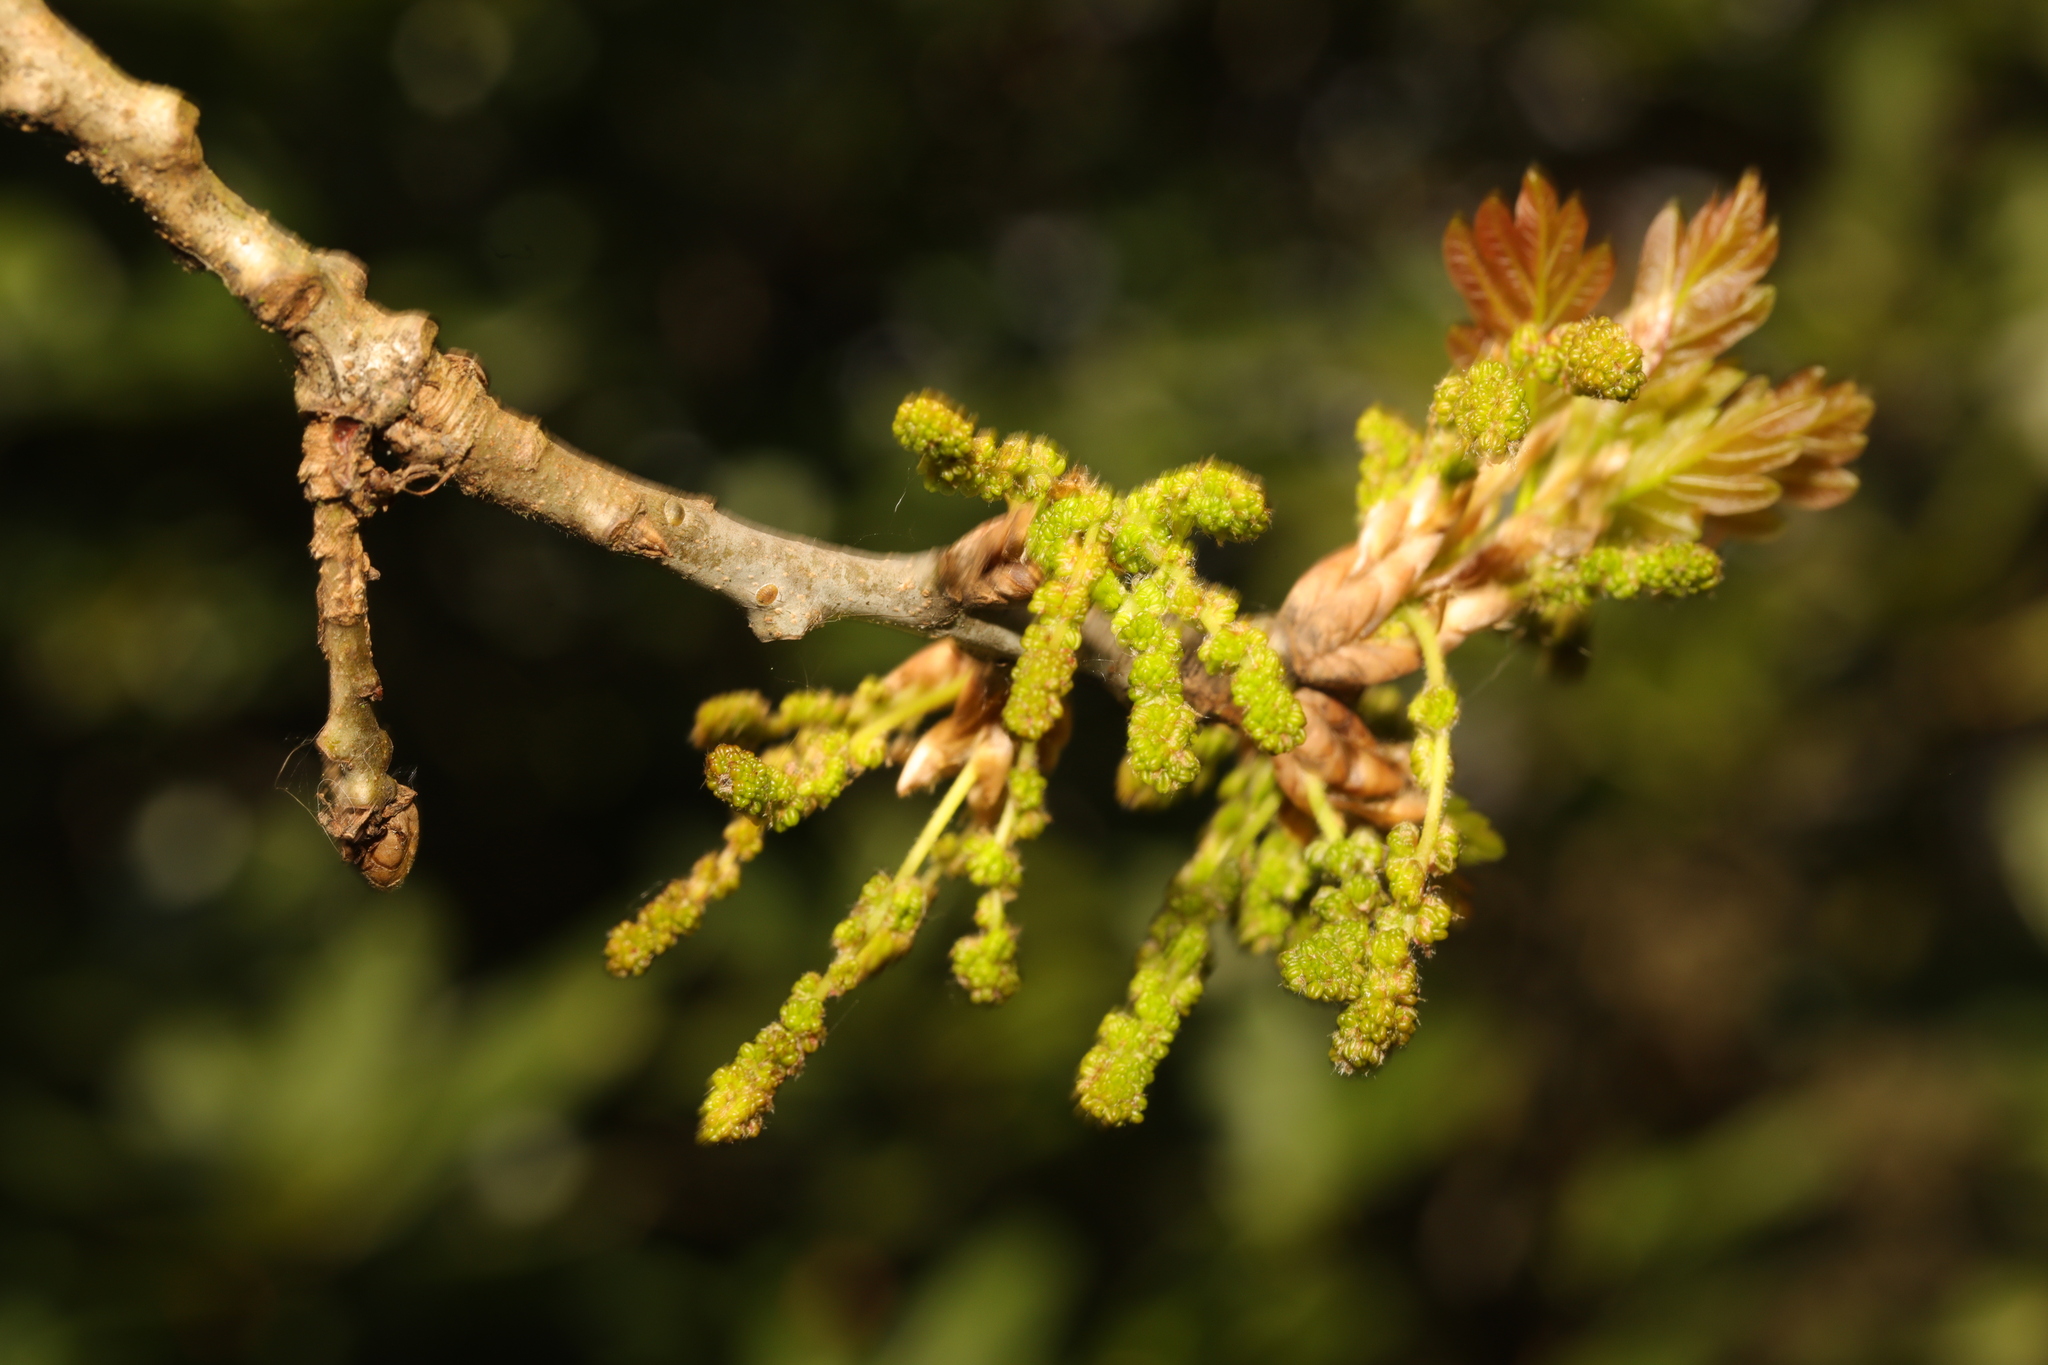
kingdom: Plantae
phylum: Tracheophyta
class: Magnoliopsida
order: Fagales
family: Fagaceae
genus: Quercus
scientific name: Quercus robur
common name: Pedunculate oak
